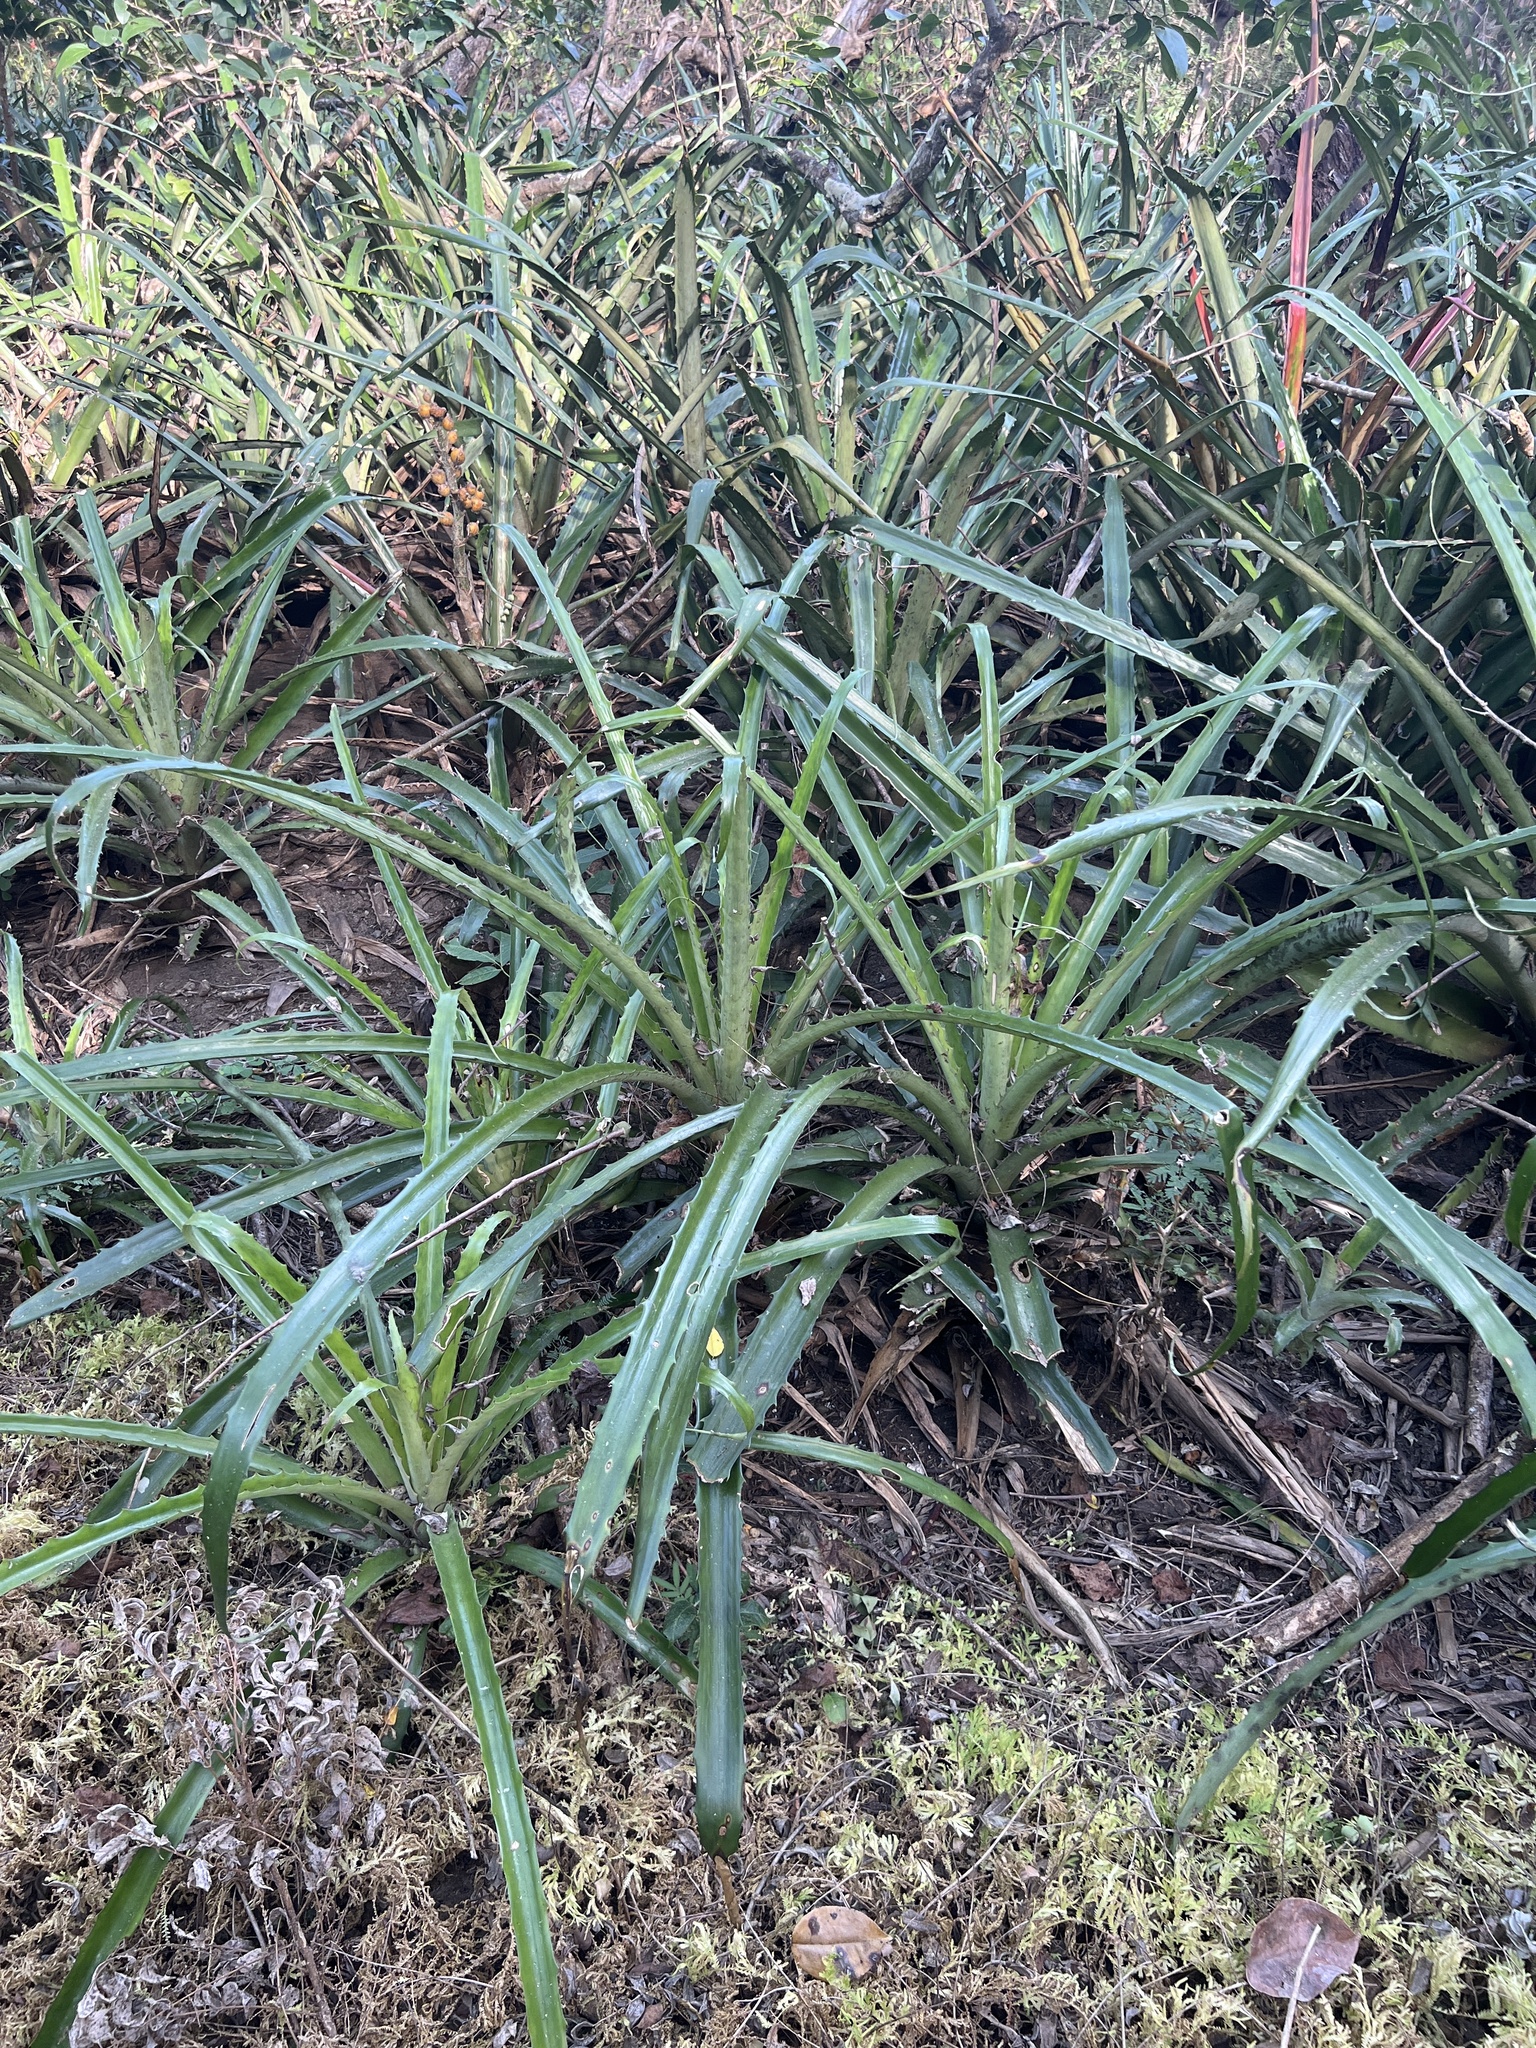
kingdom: Plantae
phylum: Tracheophyta
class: Liliopsida
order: Poales
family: Bromeliaceae
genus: Bromelia
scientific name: Bromelia pinguin
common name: Pinguin
